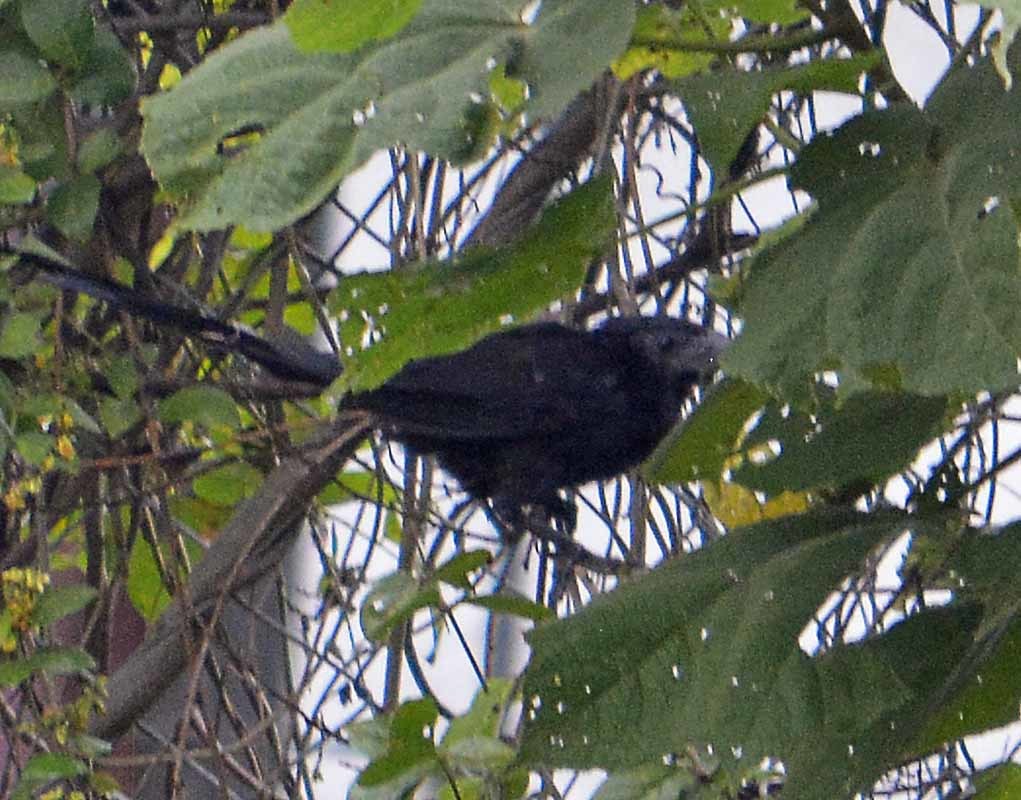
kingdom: Animalia
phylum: Chordata
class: Aves
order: Cuculiformes
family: Cuculidae
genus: Crotophaga
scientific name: Crotophaga sulcirostris
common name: Groove-billed ani
